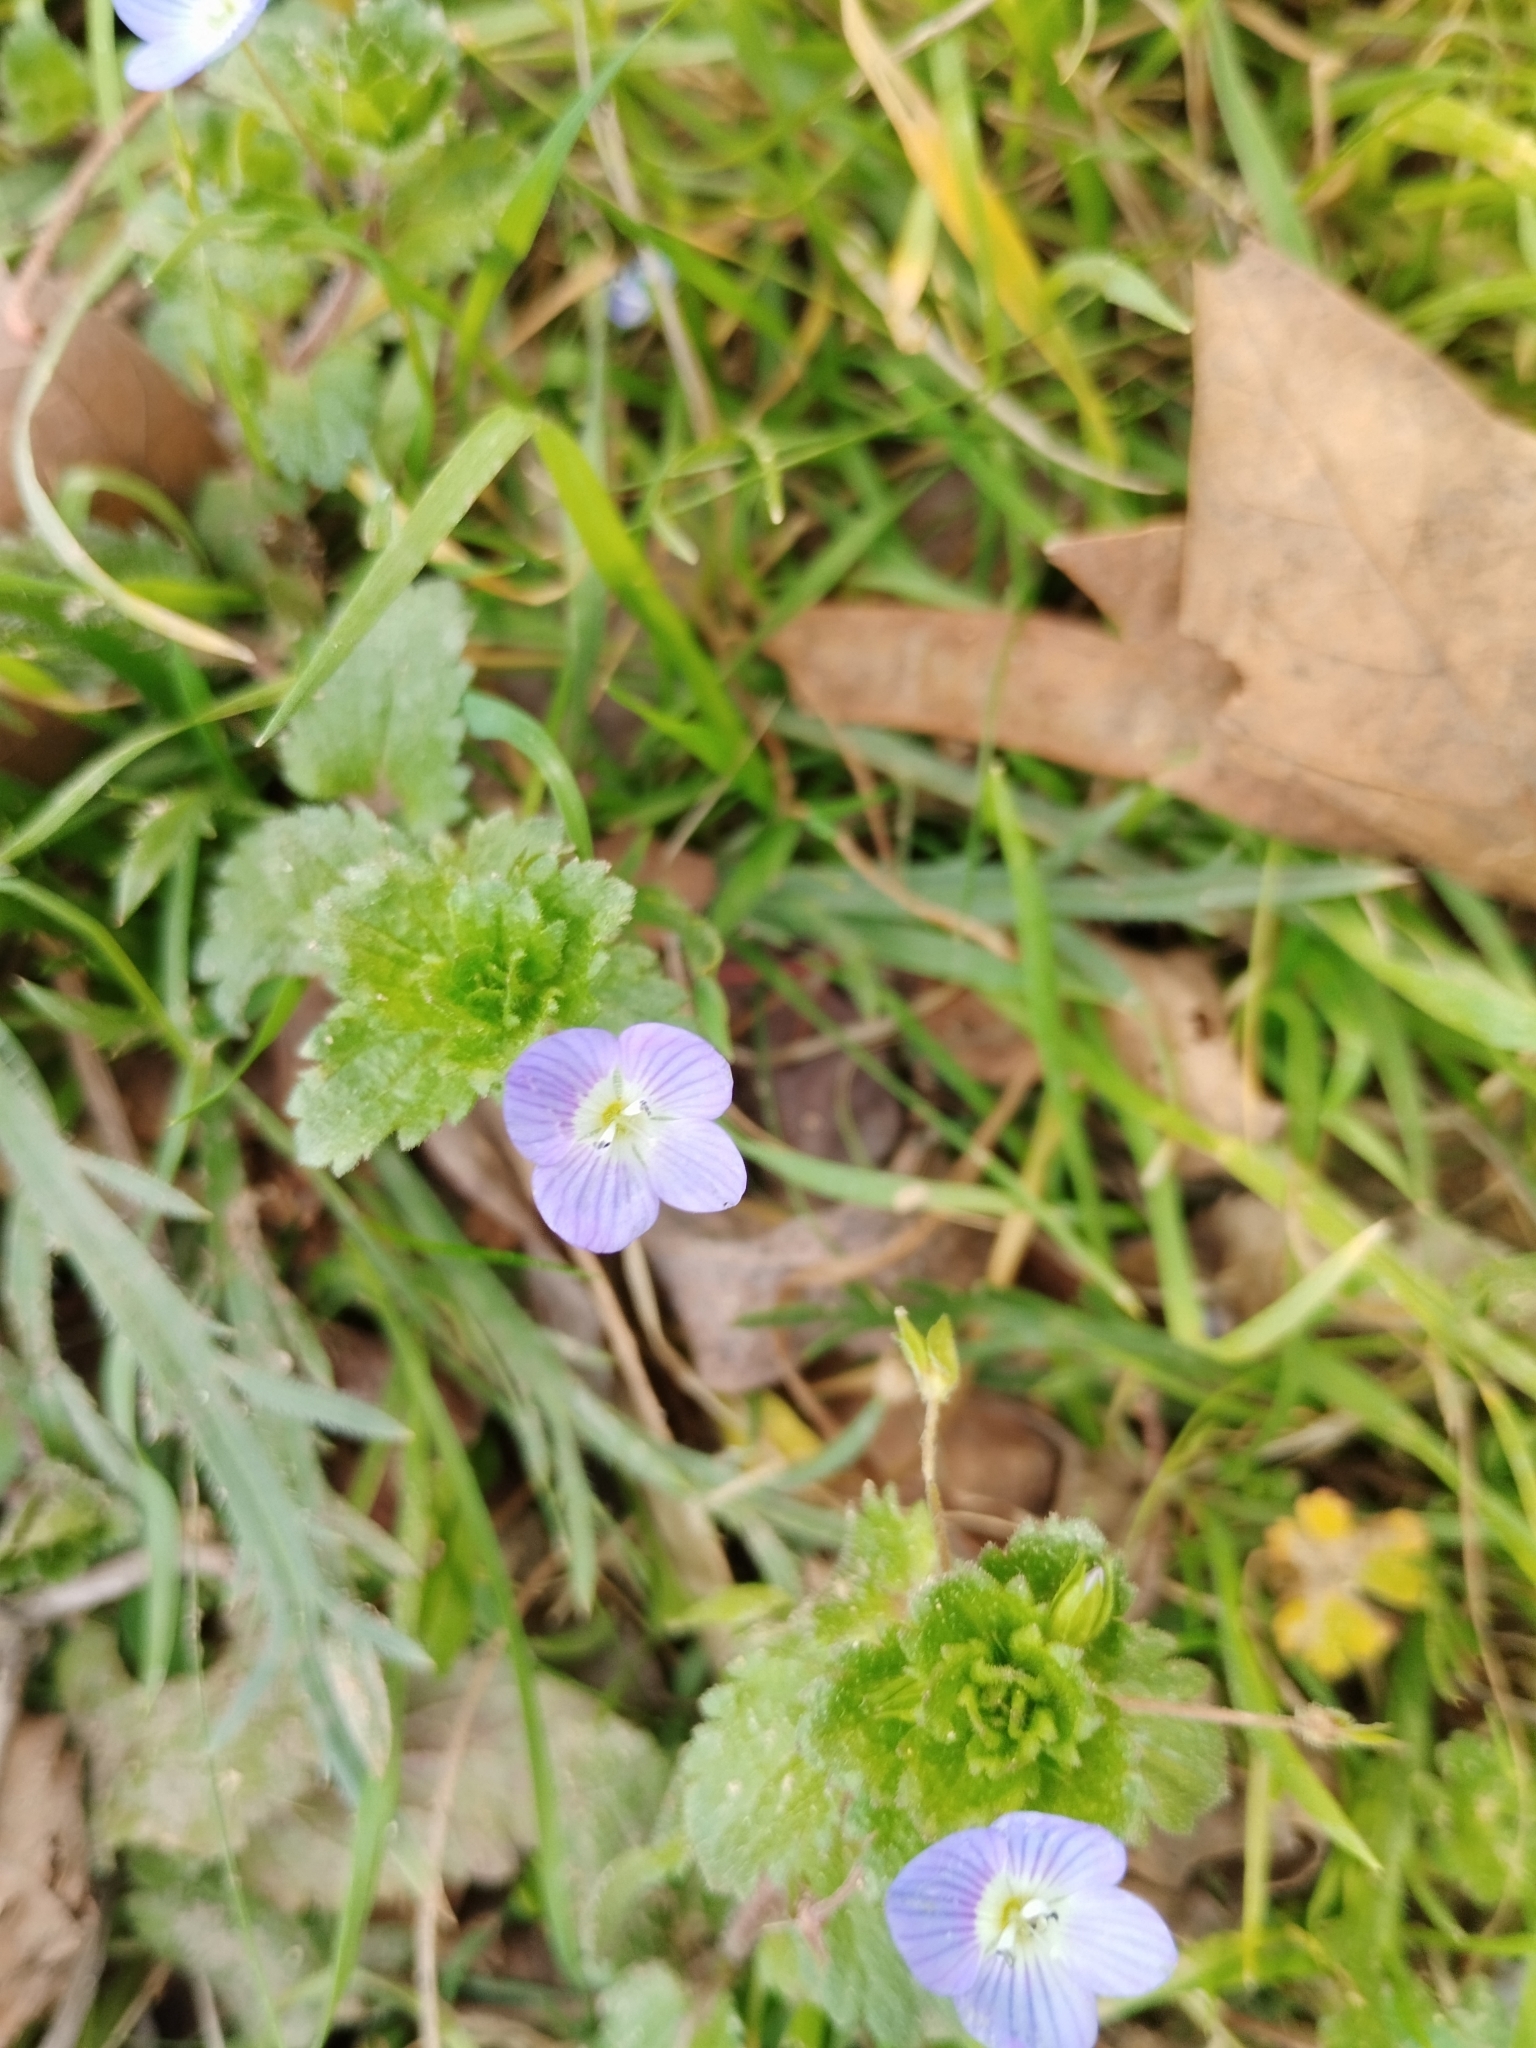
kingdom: Plantae
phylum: Tracheophyta
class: Magnoliopsida
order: Lamiales
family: Plantaginaceae
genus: Veronica
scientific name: Veronica persica
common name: Common field-speedwell
